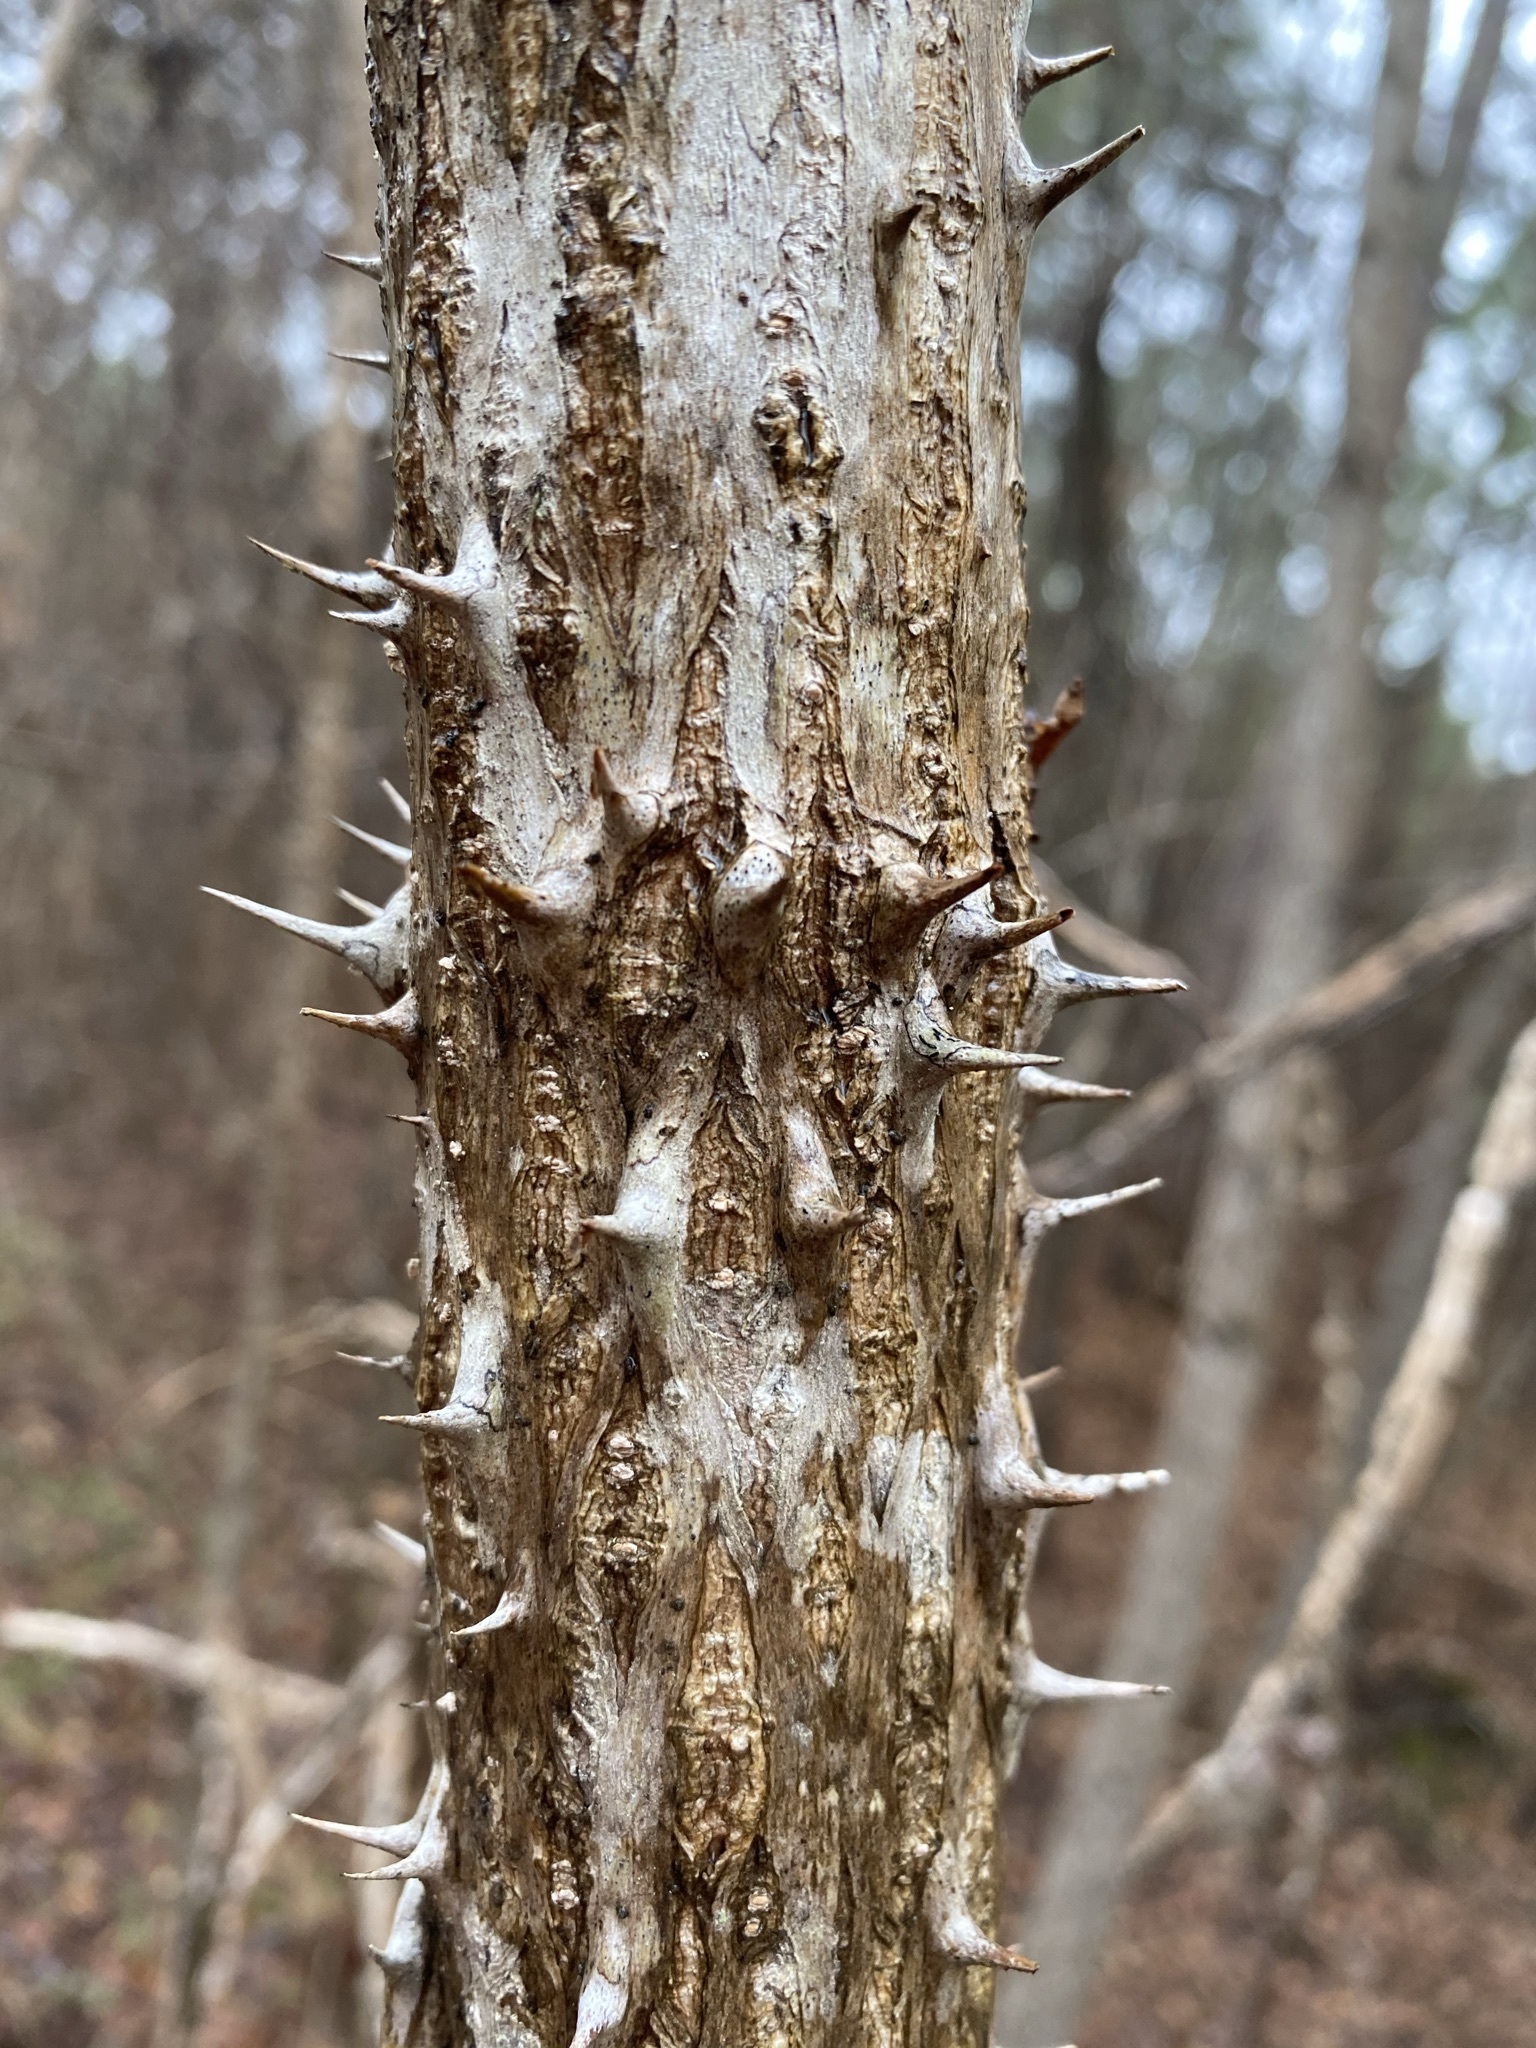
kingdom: Plantae
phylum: Tracheophyta
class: Magnoliopsida
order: Apiales
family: Araliaceae
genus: Aralia
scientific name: Aralia spinosa
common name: Hercules'-club
